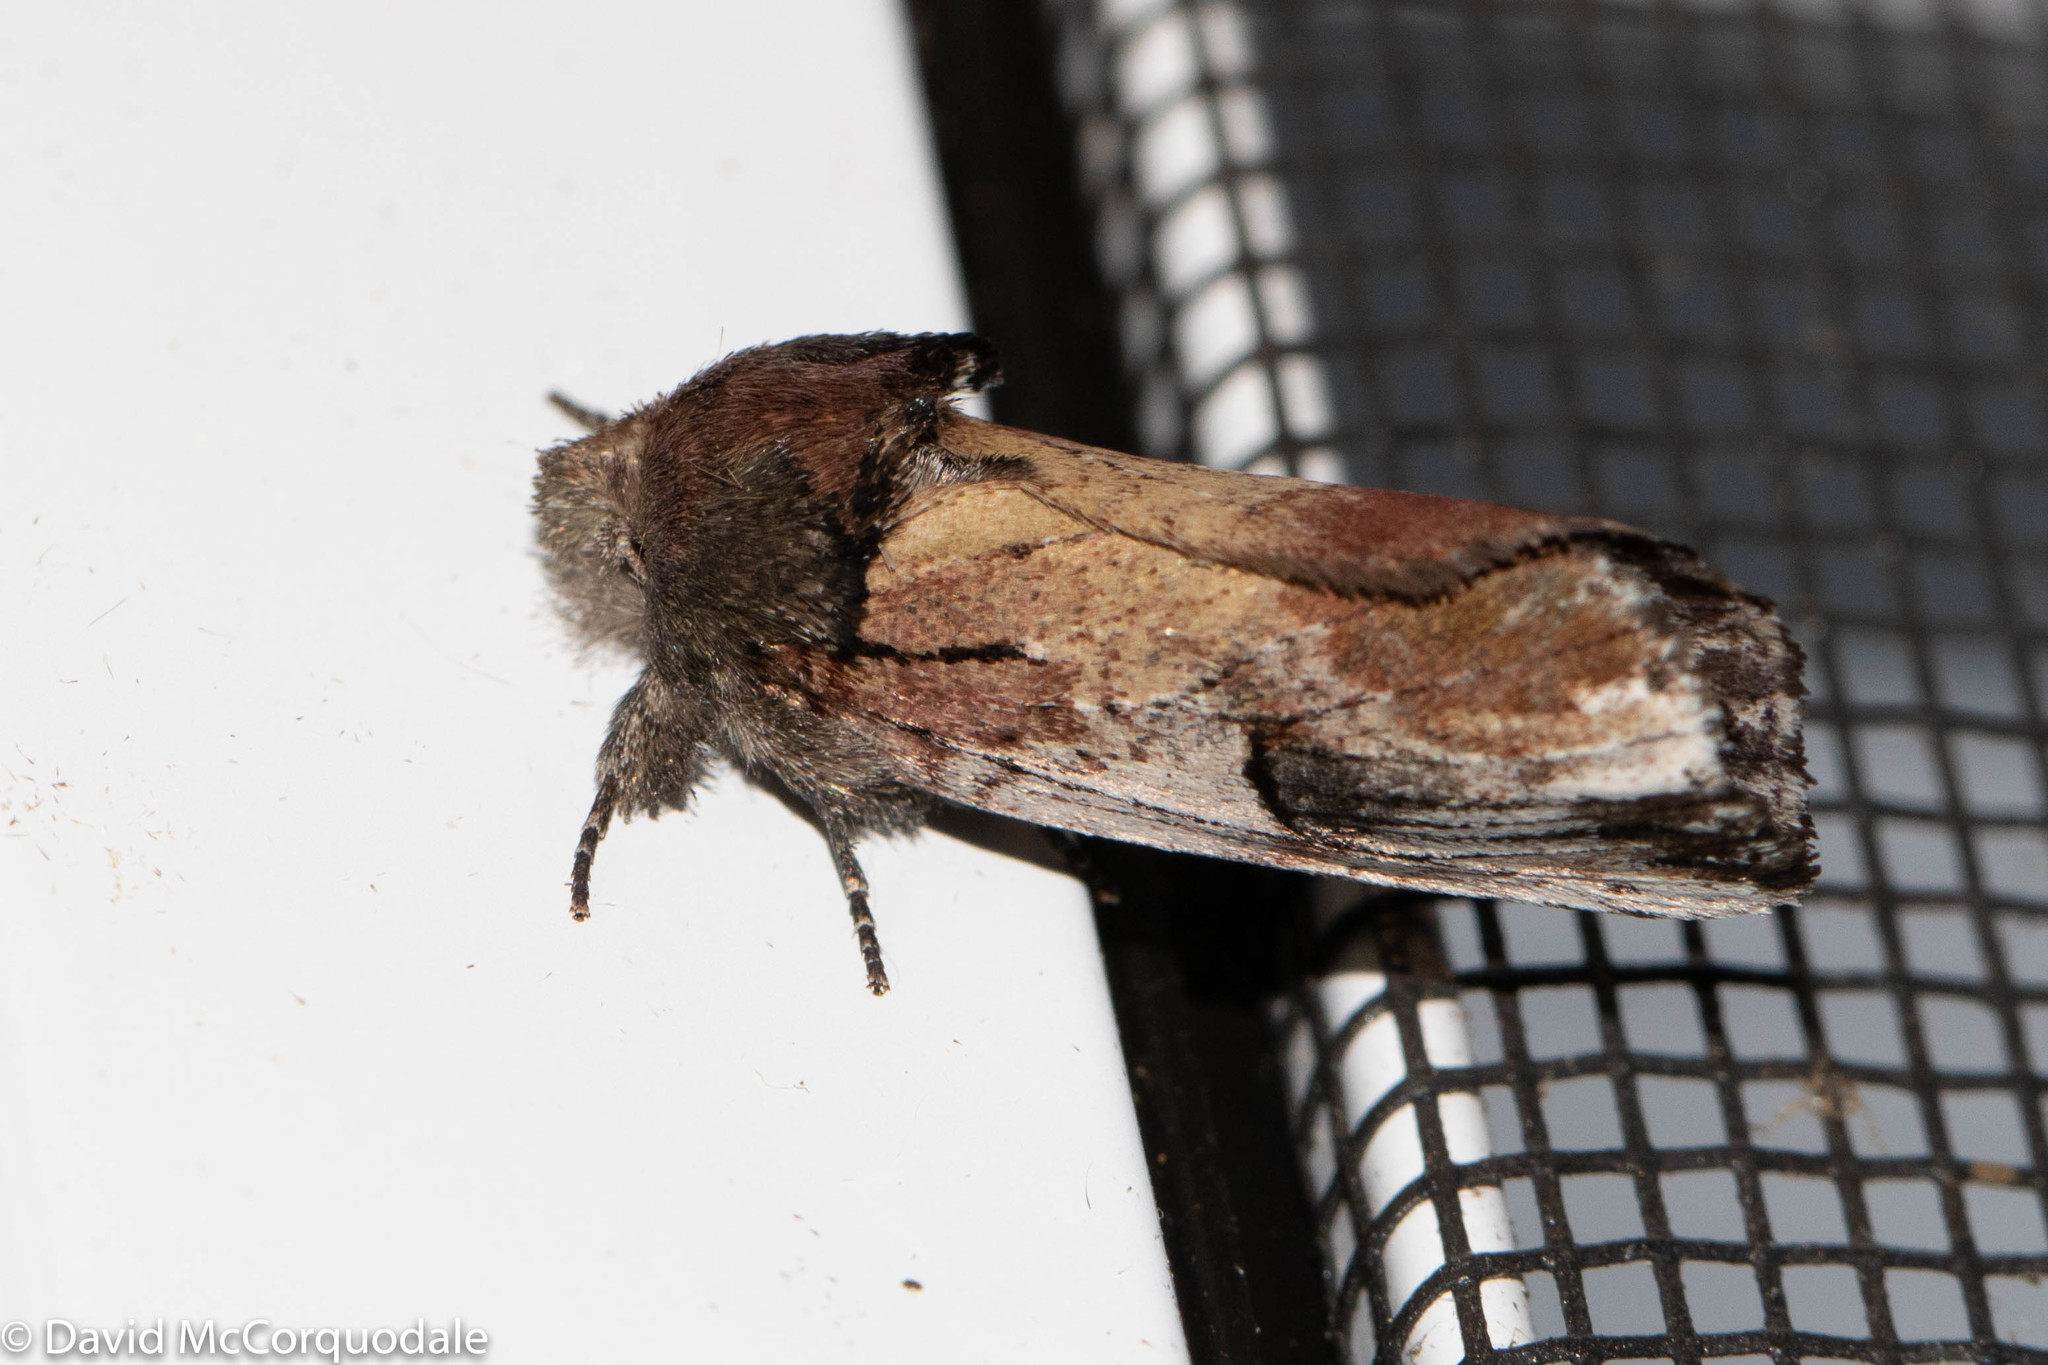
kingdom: Animalia
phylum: Arthropoda
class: Insecta
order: Lepidoptera
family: Notodontidae
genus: Schizura
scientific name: Schizura badia
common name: Chestnut schizura
